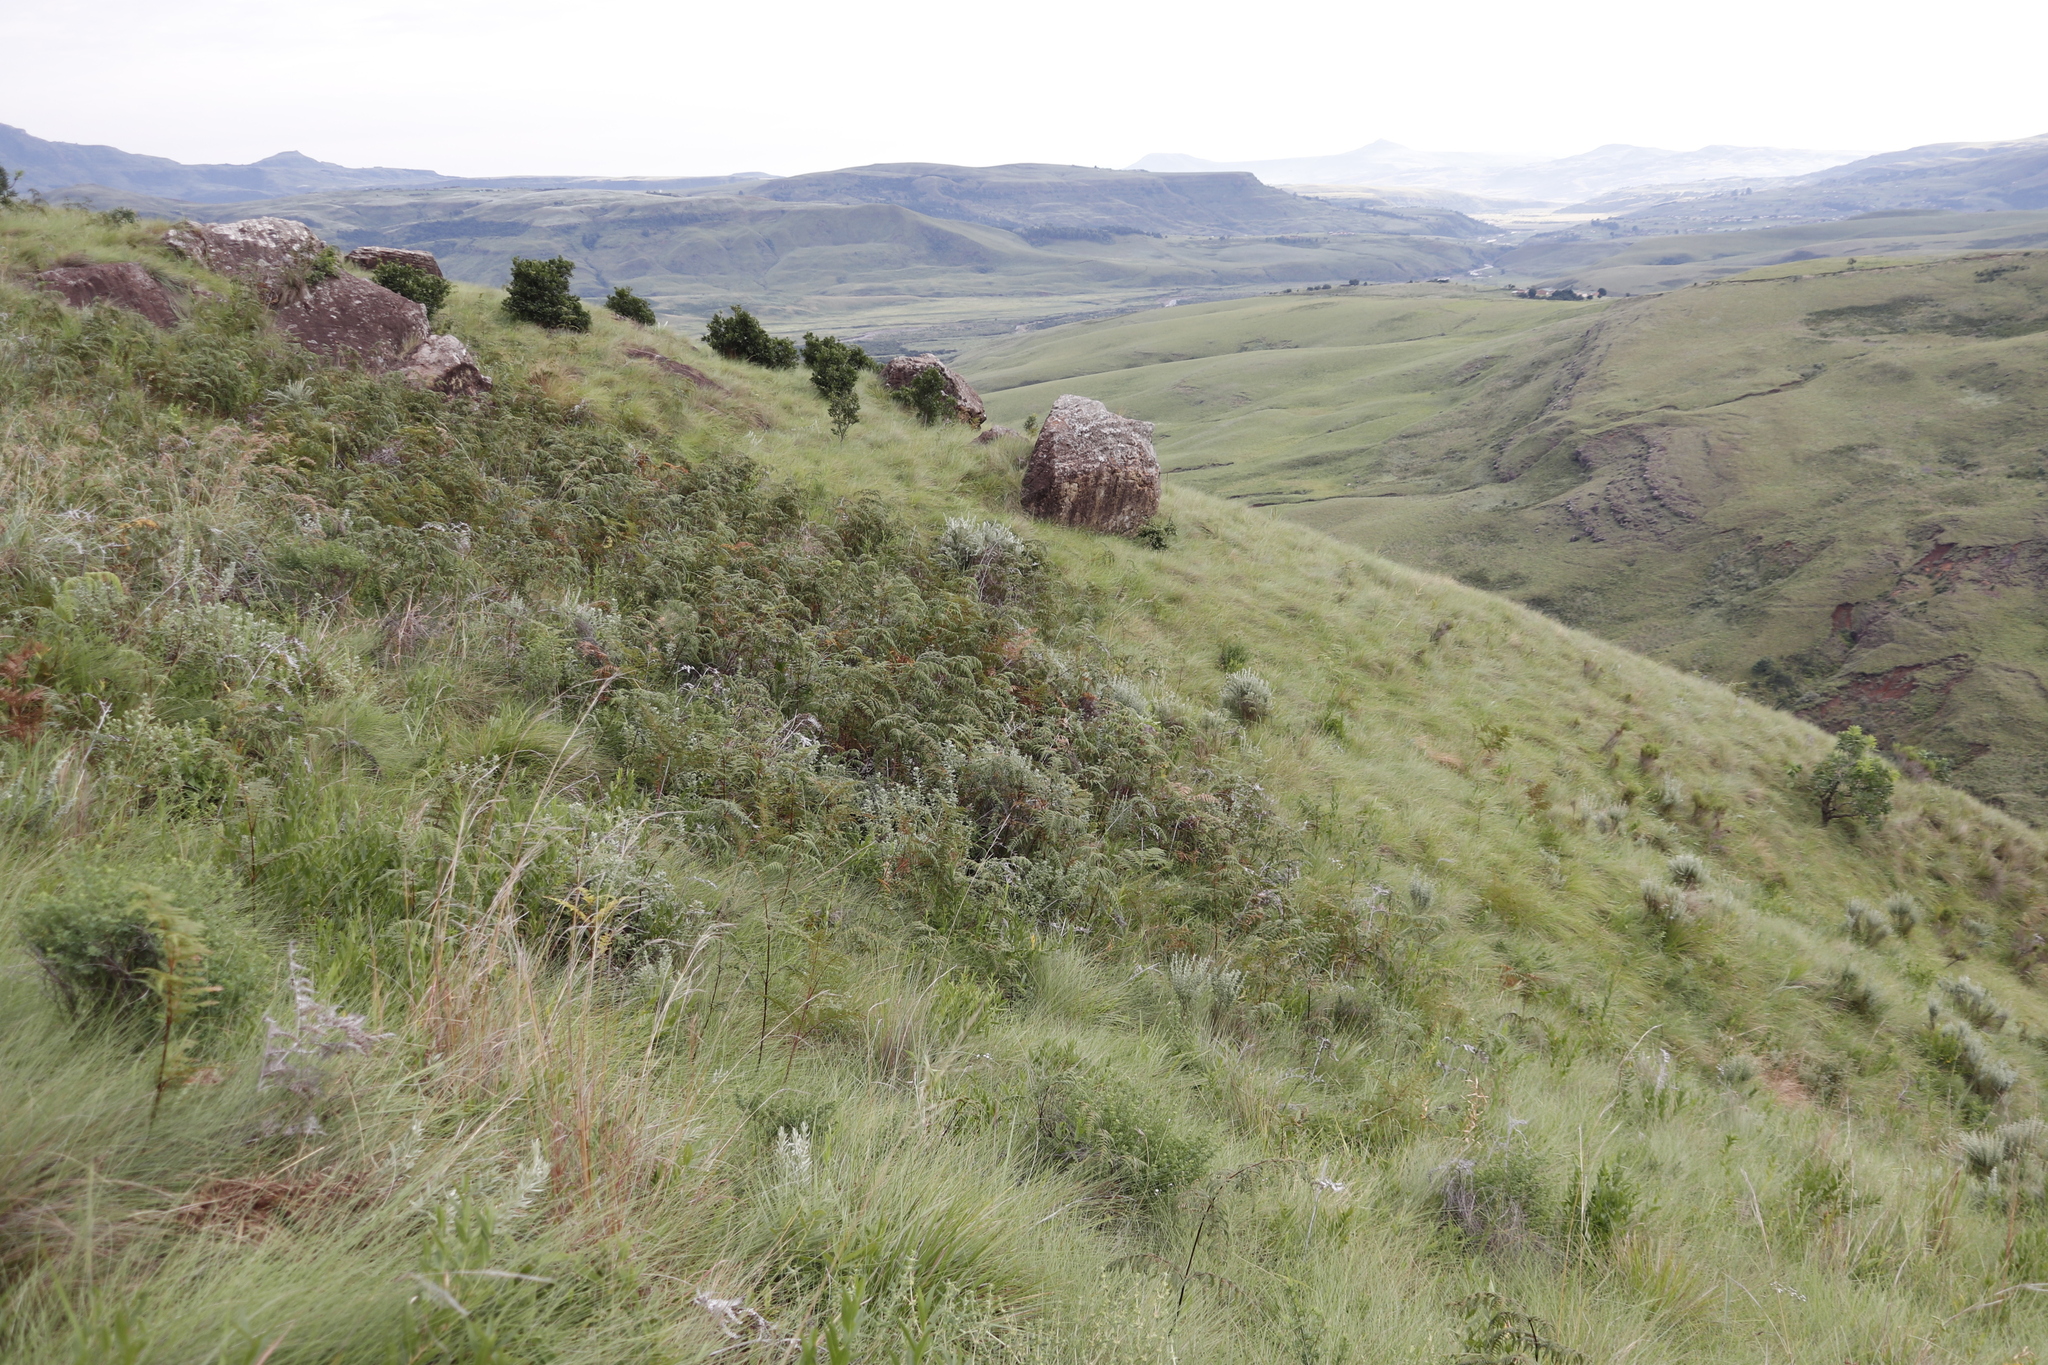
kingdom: Plantae
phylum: Tracheophyta
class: Polypodiopsida
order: Polypodiales
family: Dennstaedtiaceae
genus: Pteridium
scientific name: Pteridium aquilinum
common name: Bracken
